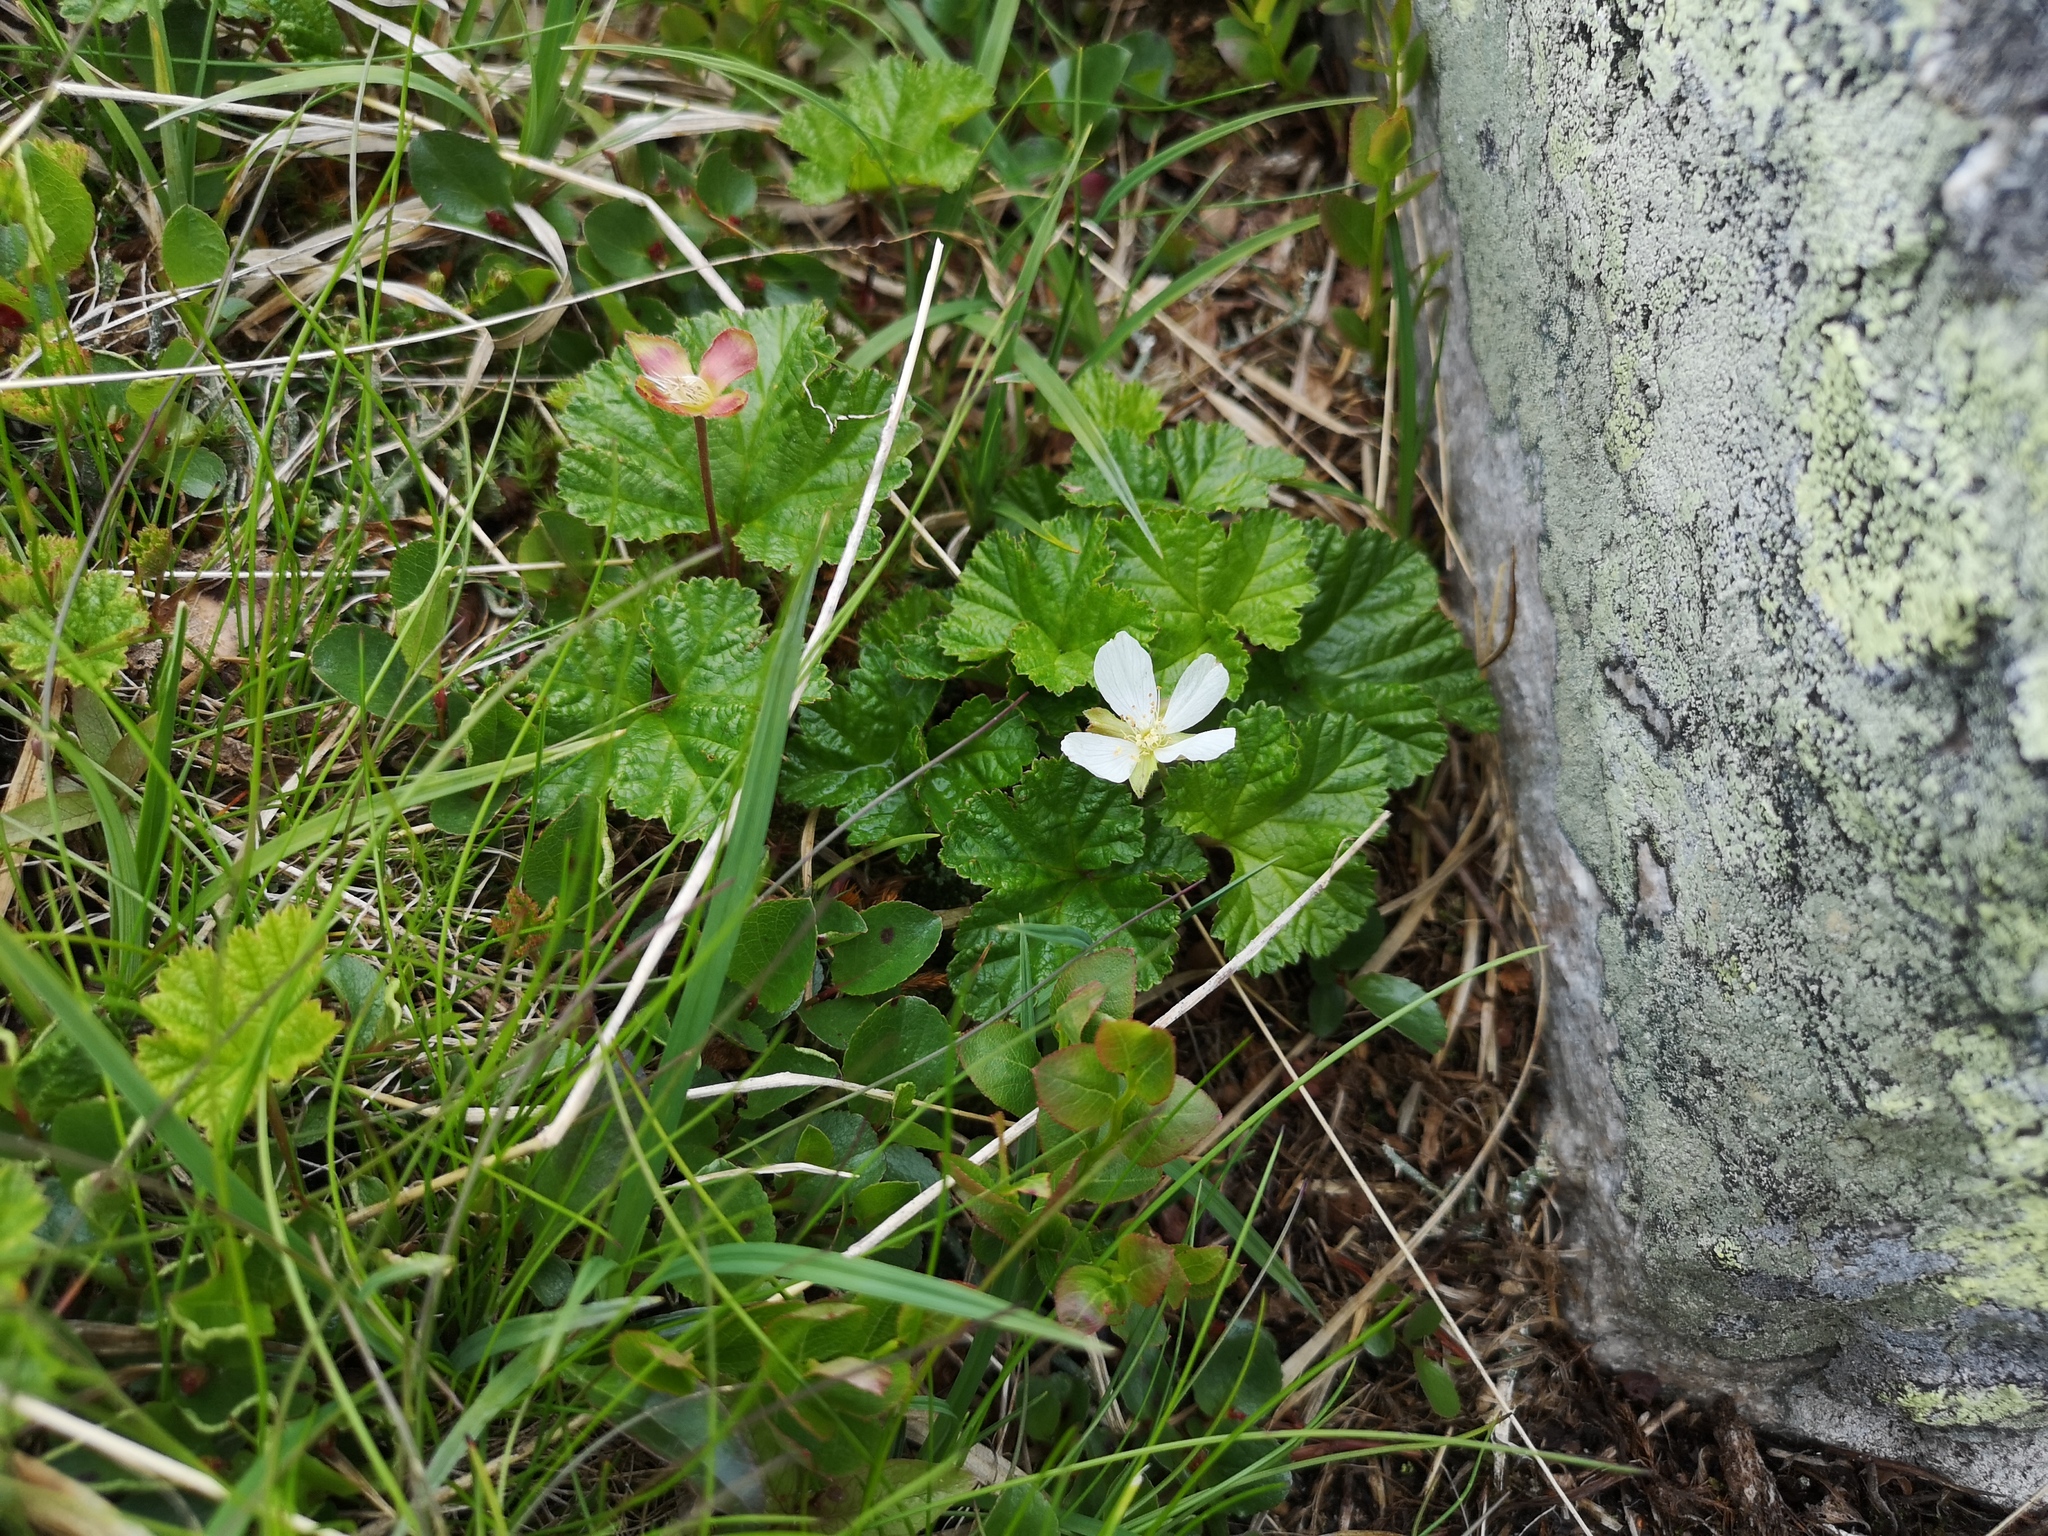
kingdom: Plantae
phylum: Tracheophyta
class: Magnoliopsida
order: Rosales
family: Rosaceae
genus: Rubus
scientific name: Rubus chamaemorus
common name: Cloudberry
